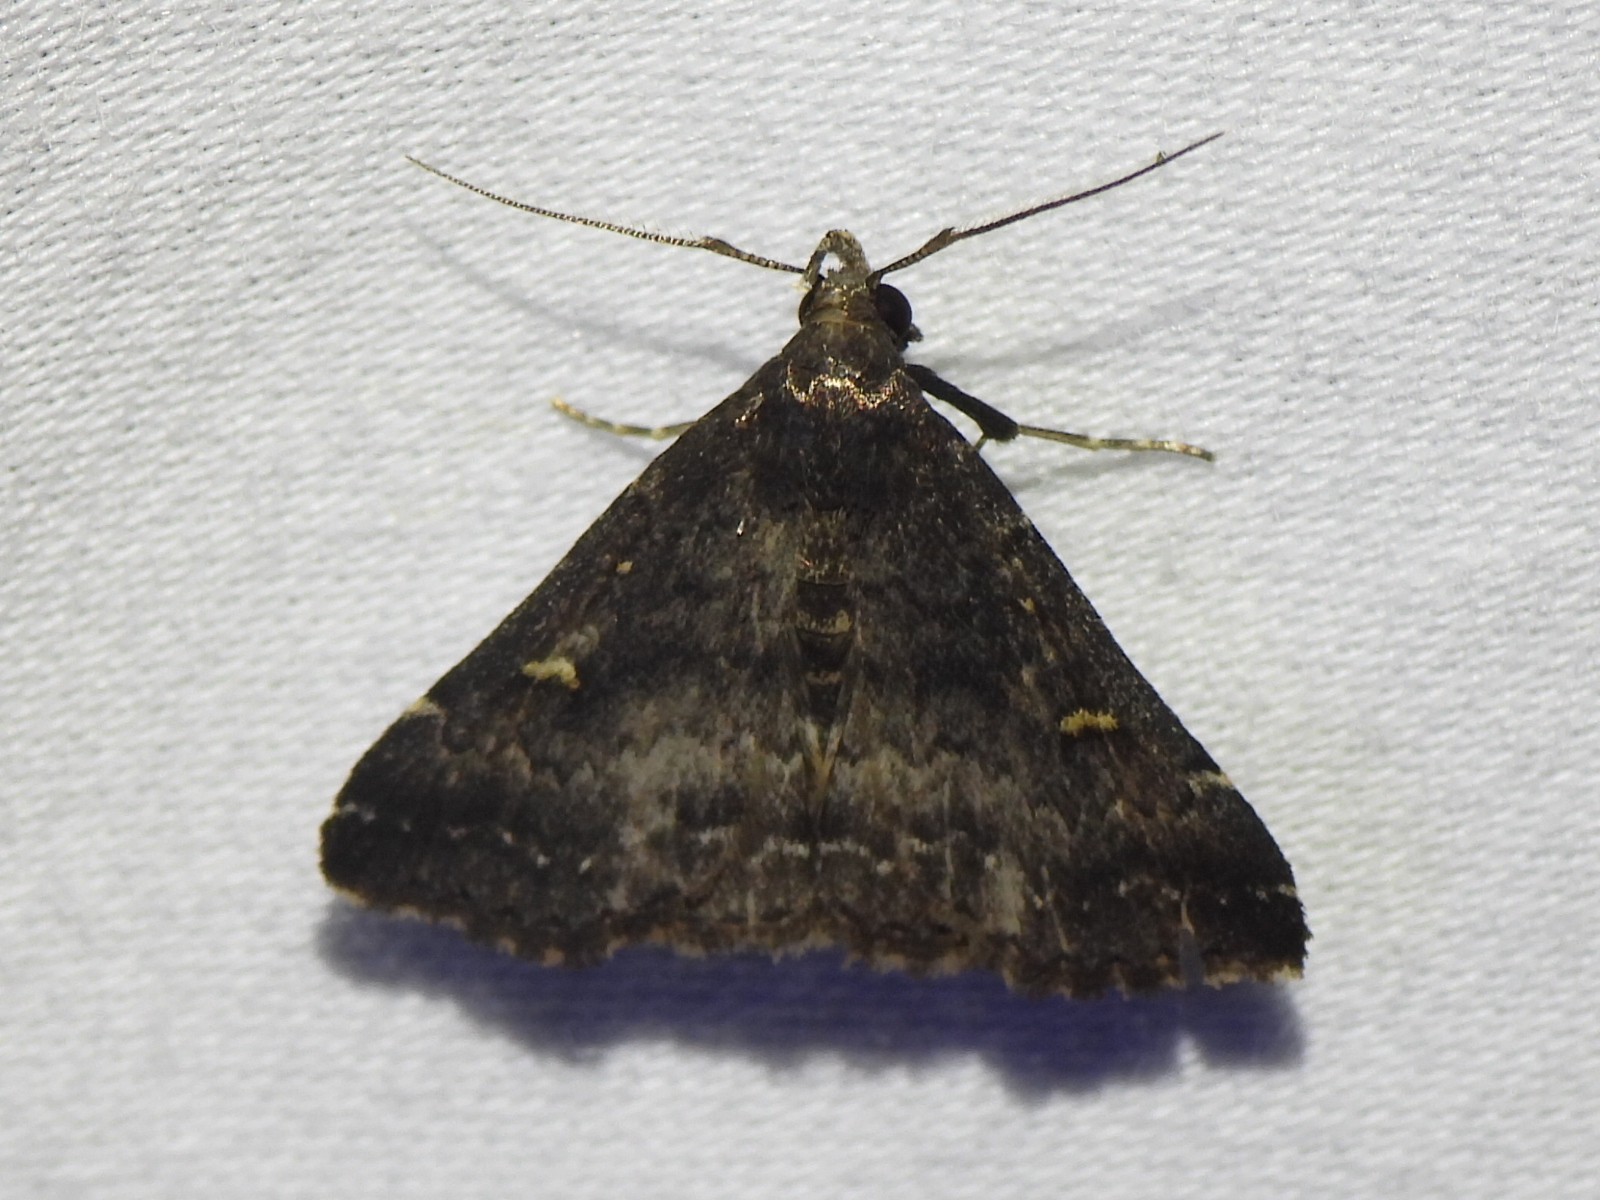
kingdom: Animalia
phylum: Arthropoda
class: Insecta
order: Lepidoptera
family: Erebidae
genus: Tetanolita
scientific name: Tetanolita mynesalis
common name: Smoky tetanolita moth
